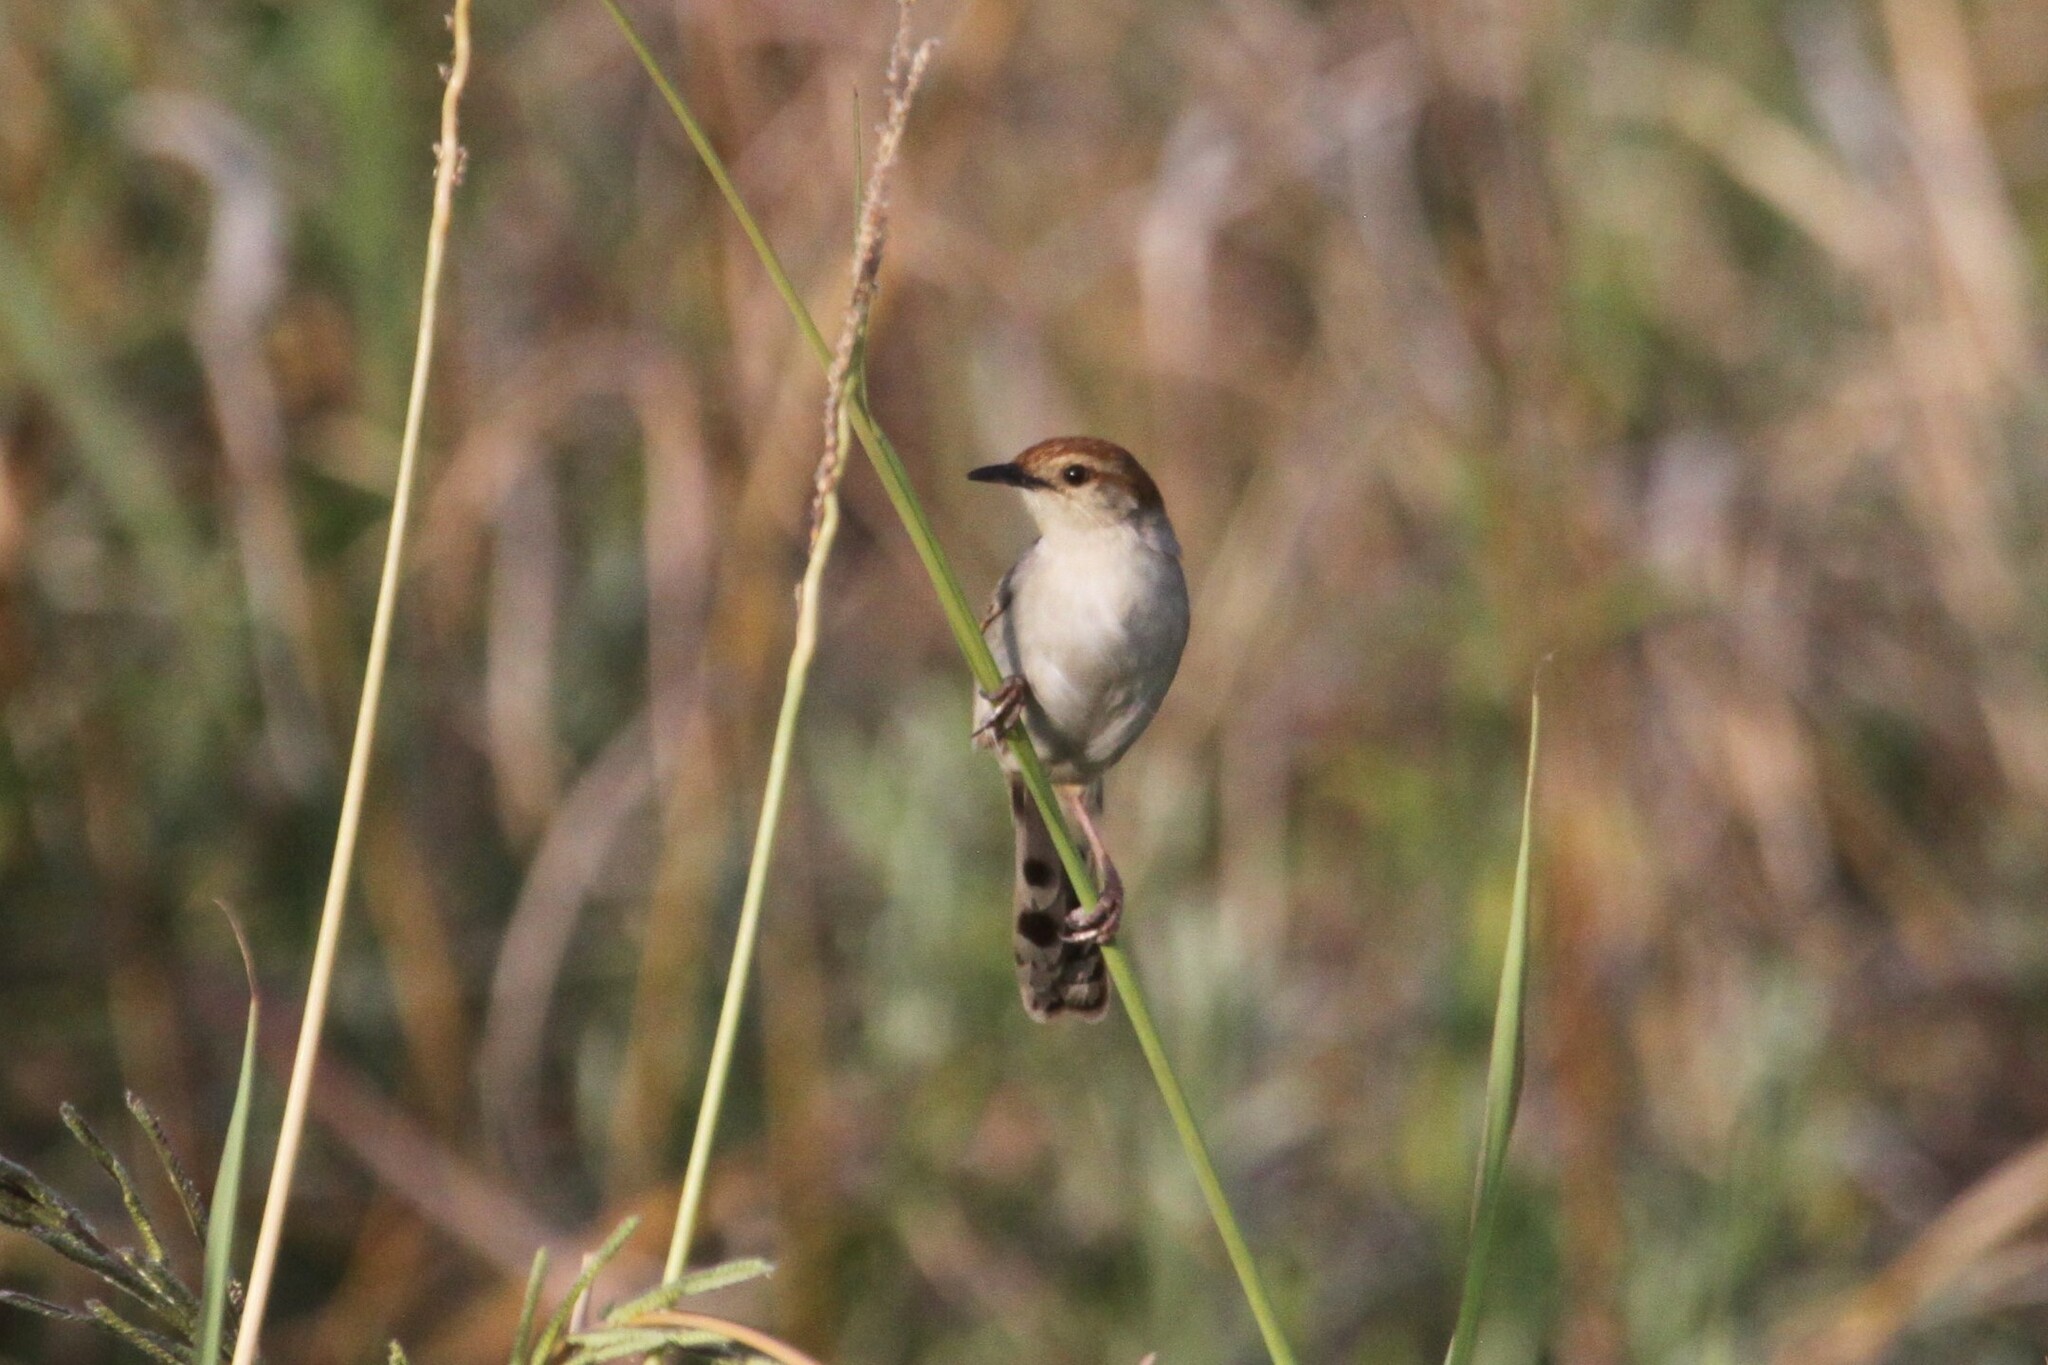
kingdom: Animalia
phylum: Chordata
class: Aves
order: Passeriformes
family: Cisticolidae
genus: Cisticola
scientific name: Cisticola tinniens
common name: Levaillant's cisticola
